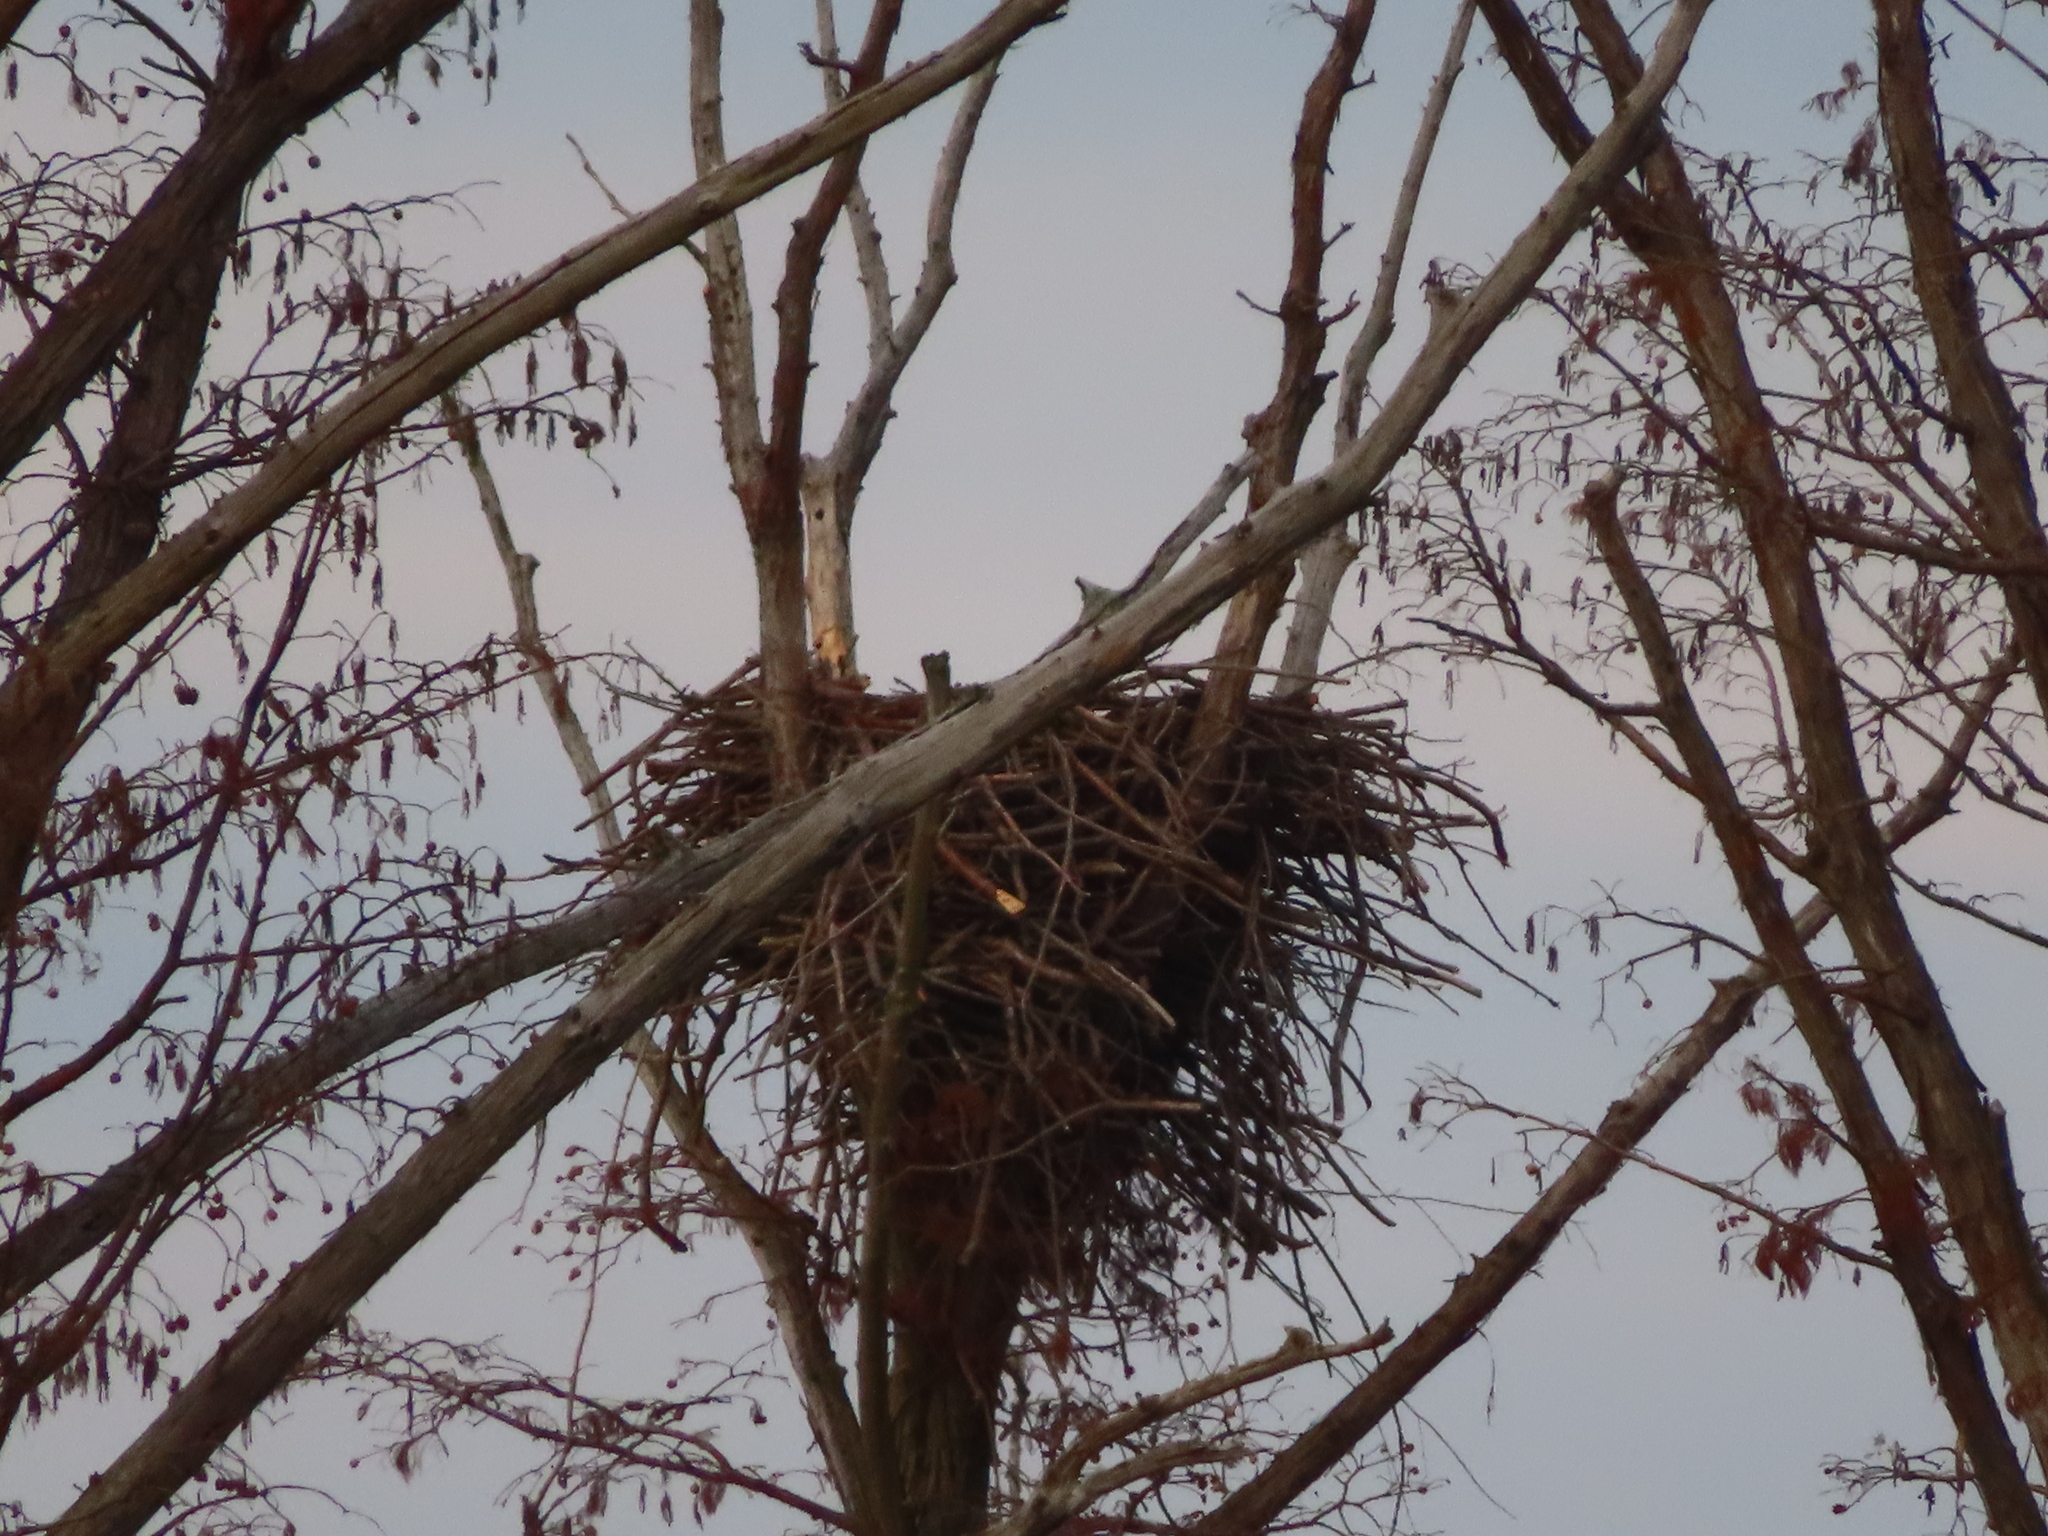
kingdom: Animalia
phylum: Chordata
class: Aves
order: Accipitriformes
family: Accipitridae
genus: Haliaeetus
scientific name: Haliaeetus leucocephalus
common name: Bald eagle
